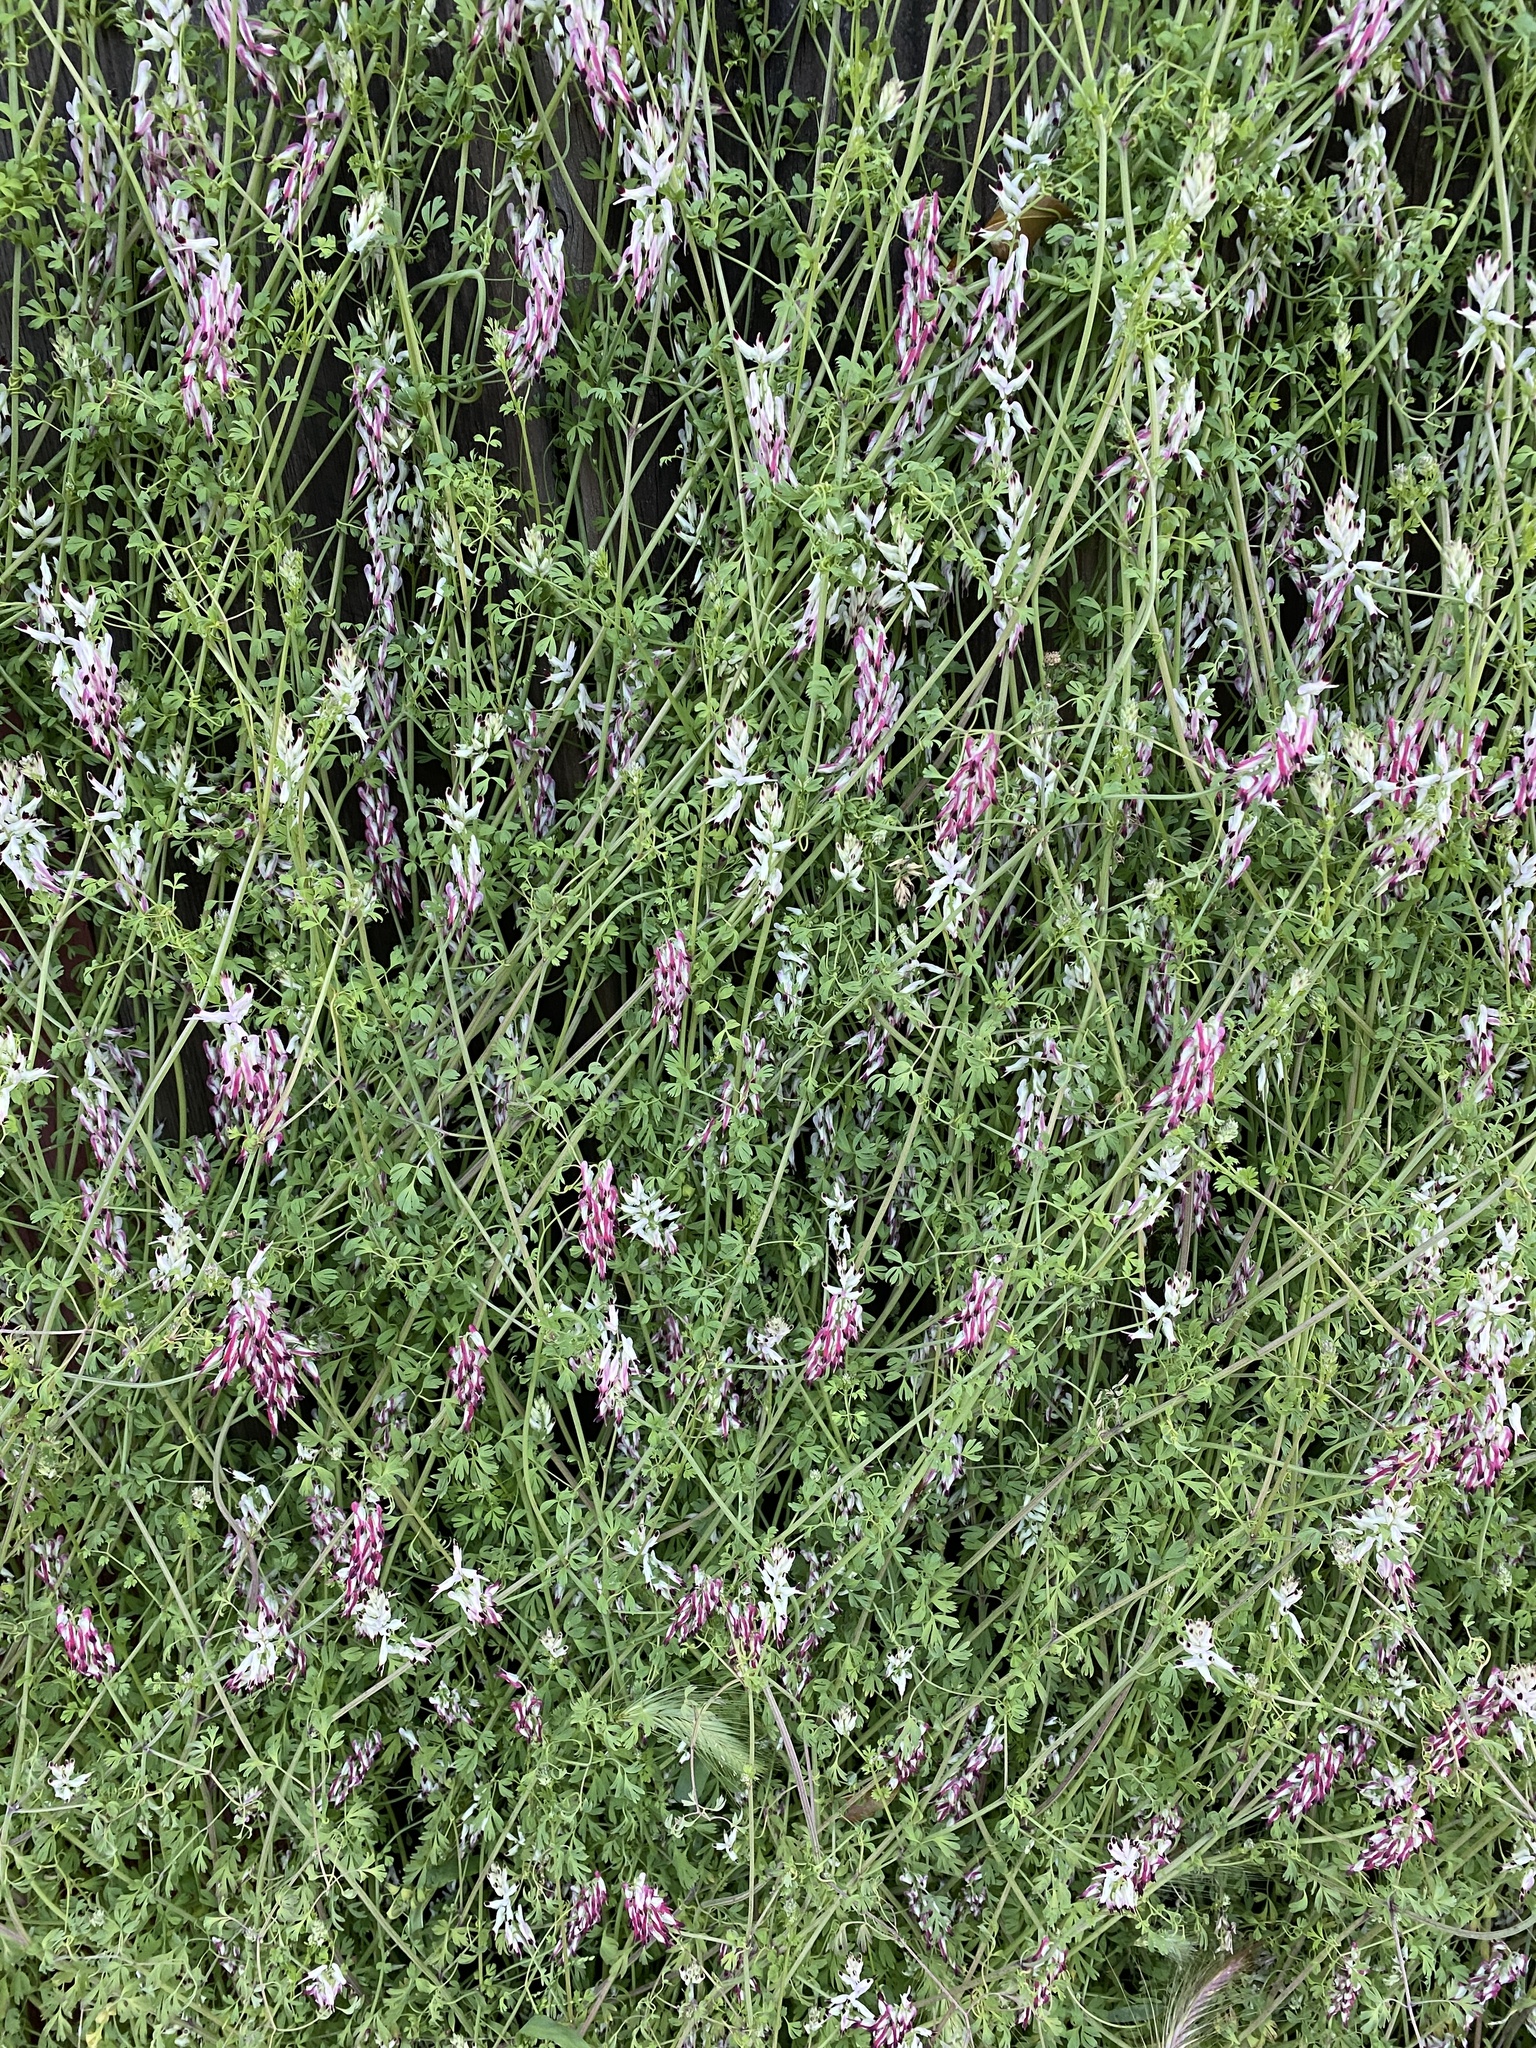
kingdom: Plantae
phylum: Tracheophyta
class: Magnoliopsida
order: Ranunculales
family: Papaveraceae
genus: Fumaria
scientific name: Fumaria capreolata
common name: White ramping-fumitory
